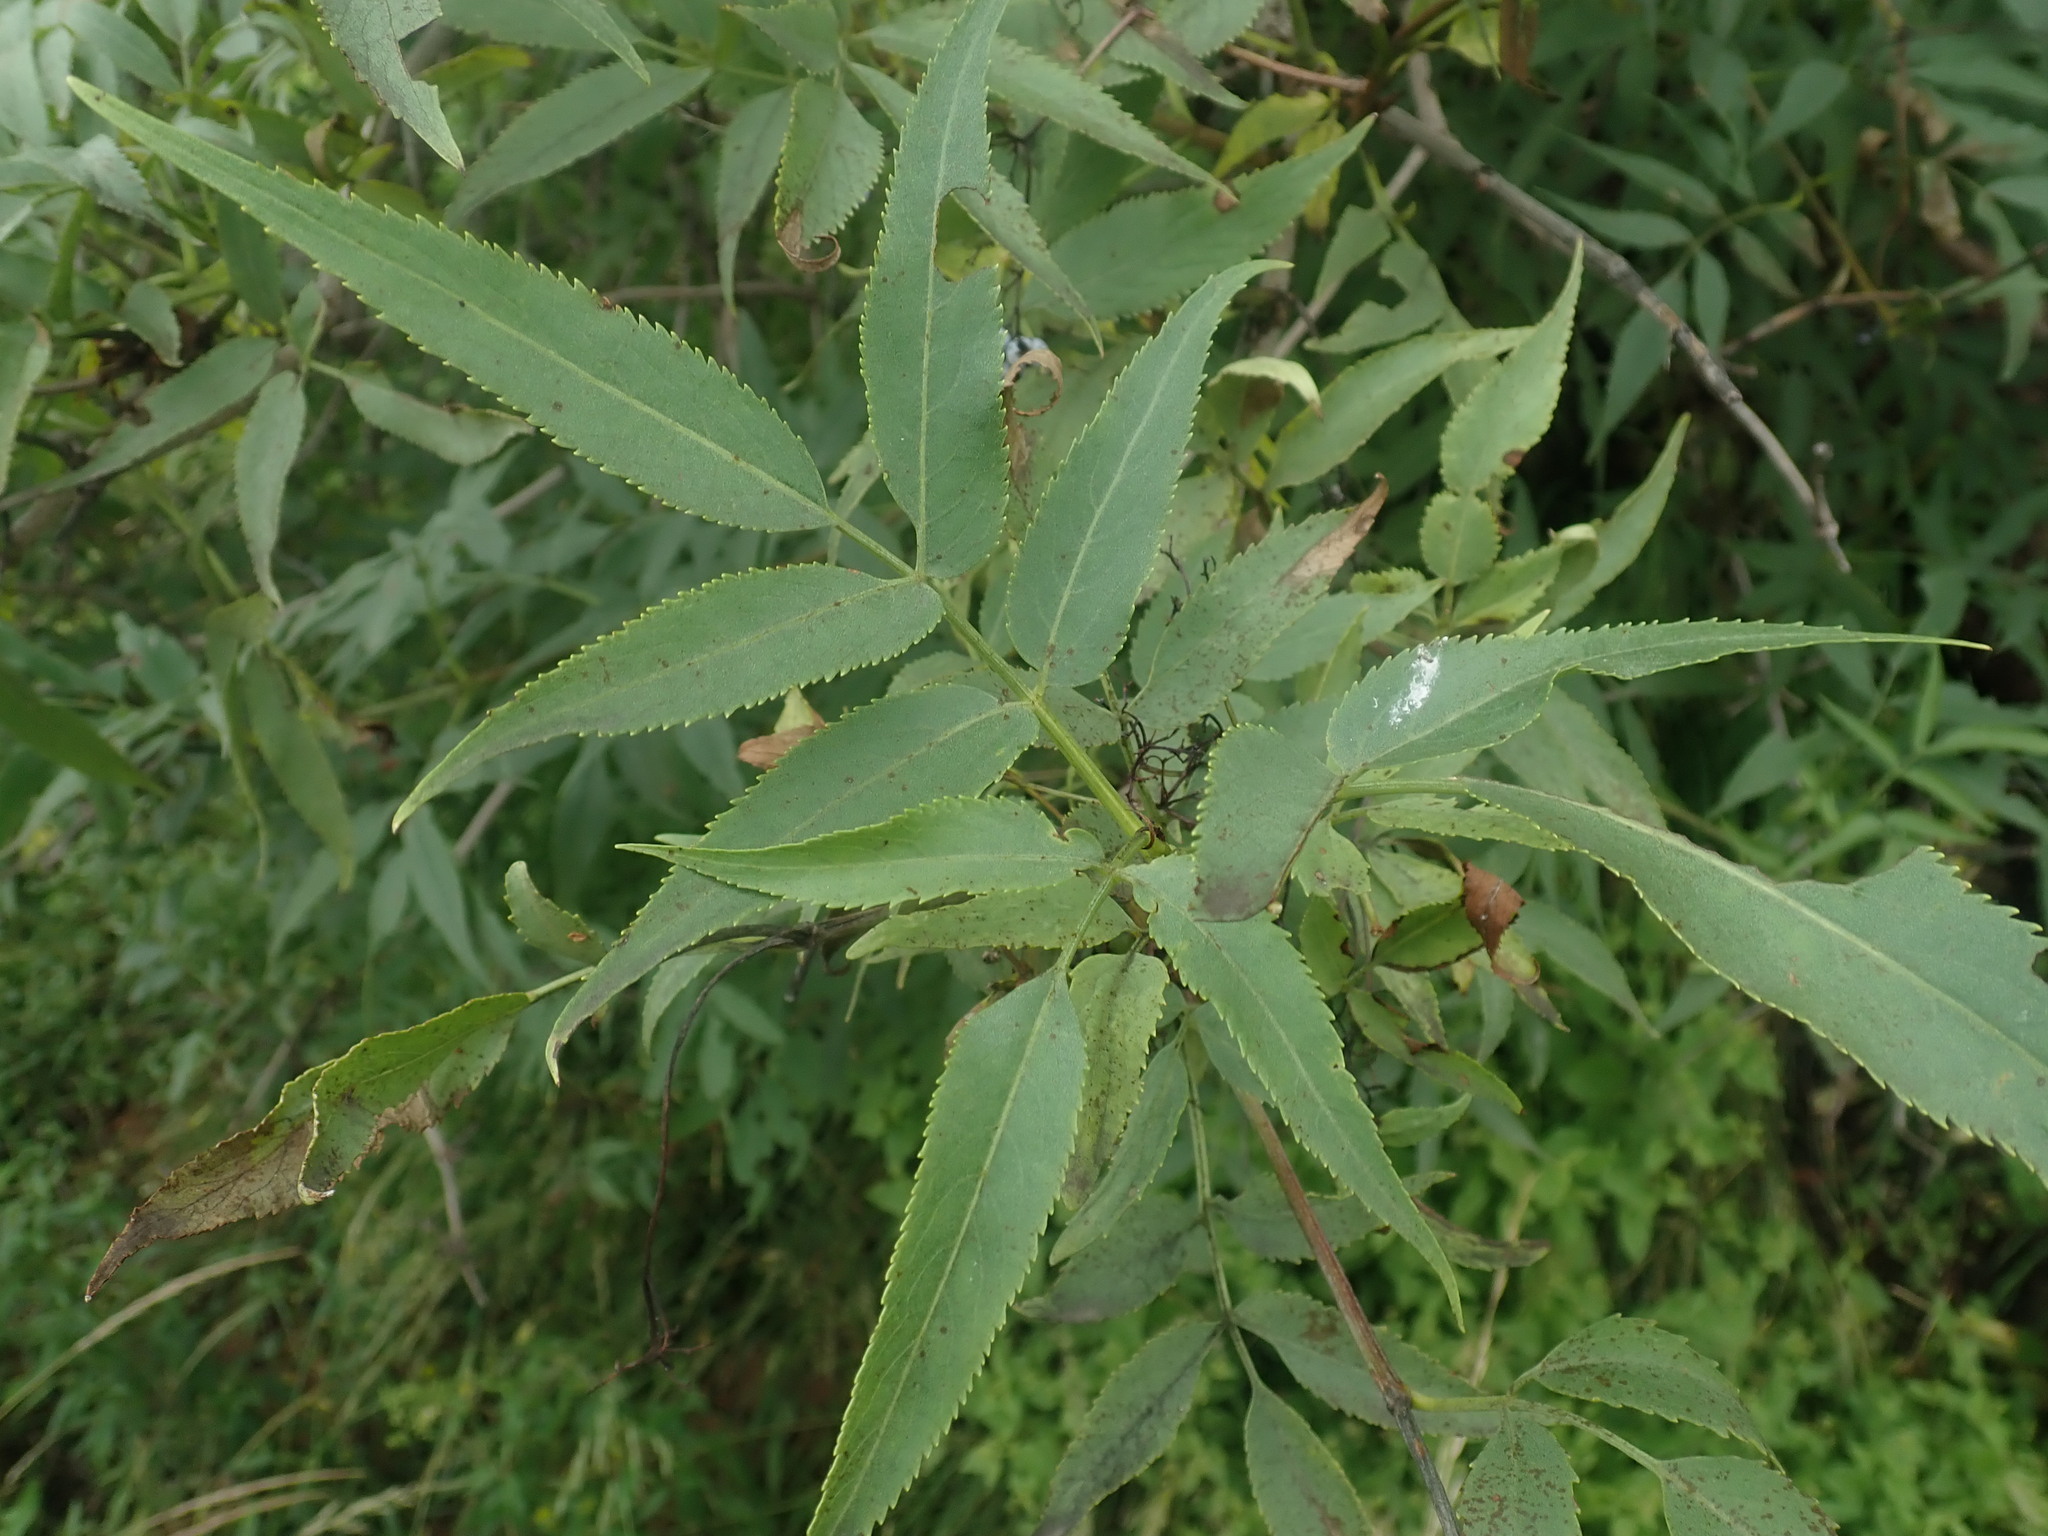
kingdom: Plantae
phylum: Tracheophyta
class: Magnoliopsida
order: Dipsacales
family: Viburnaceae
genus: Sambucus
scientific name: Sambucus cerulea
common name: Blue elder
